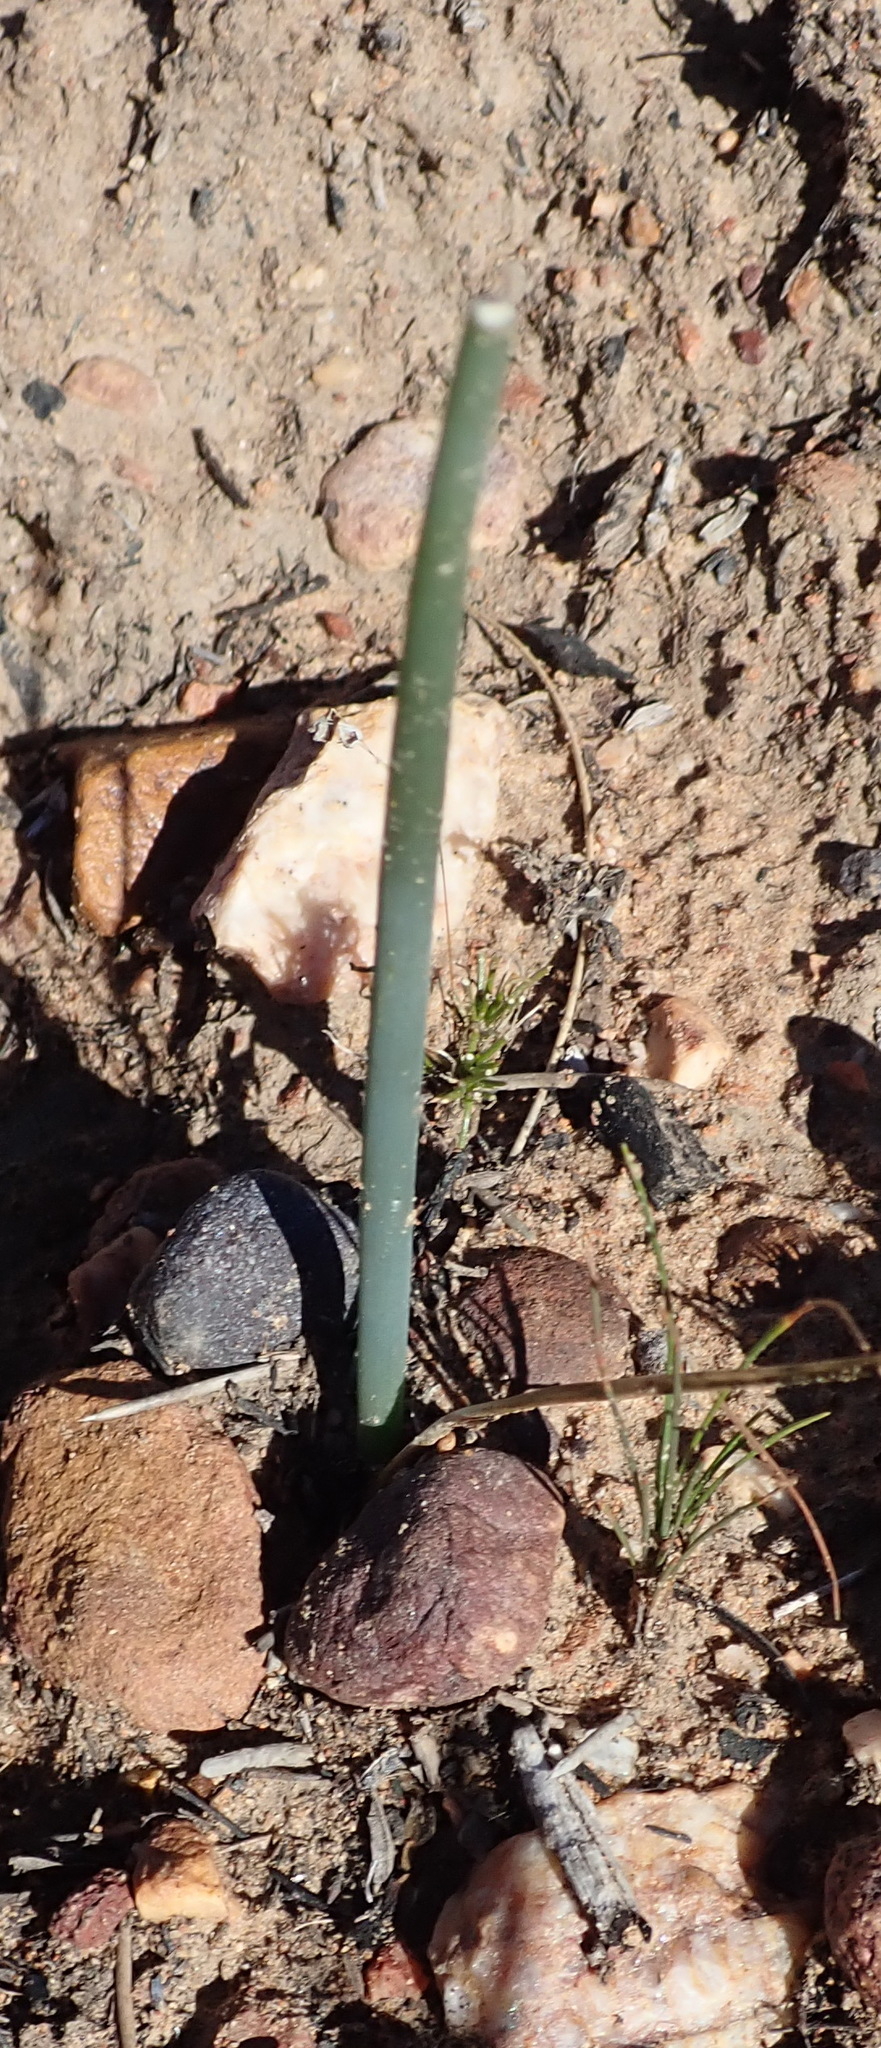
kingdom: Plantae
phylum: Tracheophyta
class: Liliopsida
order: Asparagales
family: Asparagaceae
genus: Drimia
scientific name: Drimia anomala
